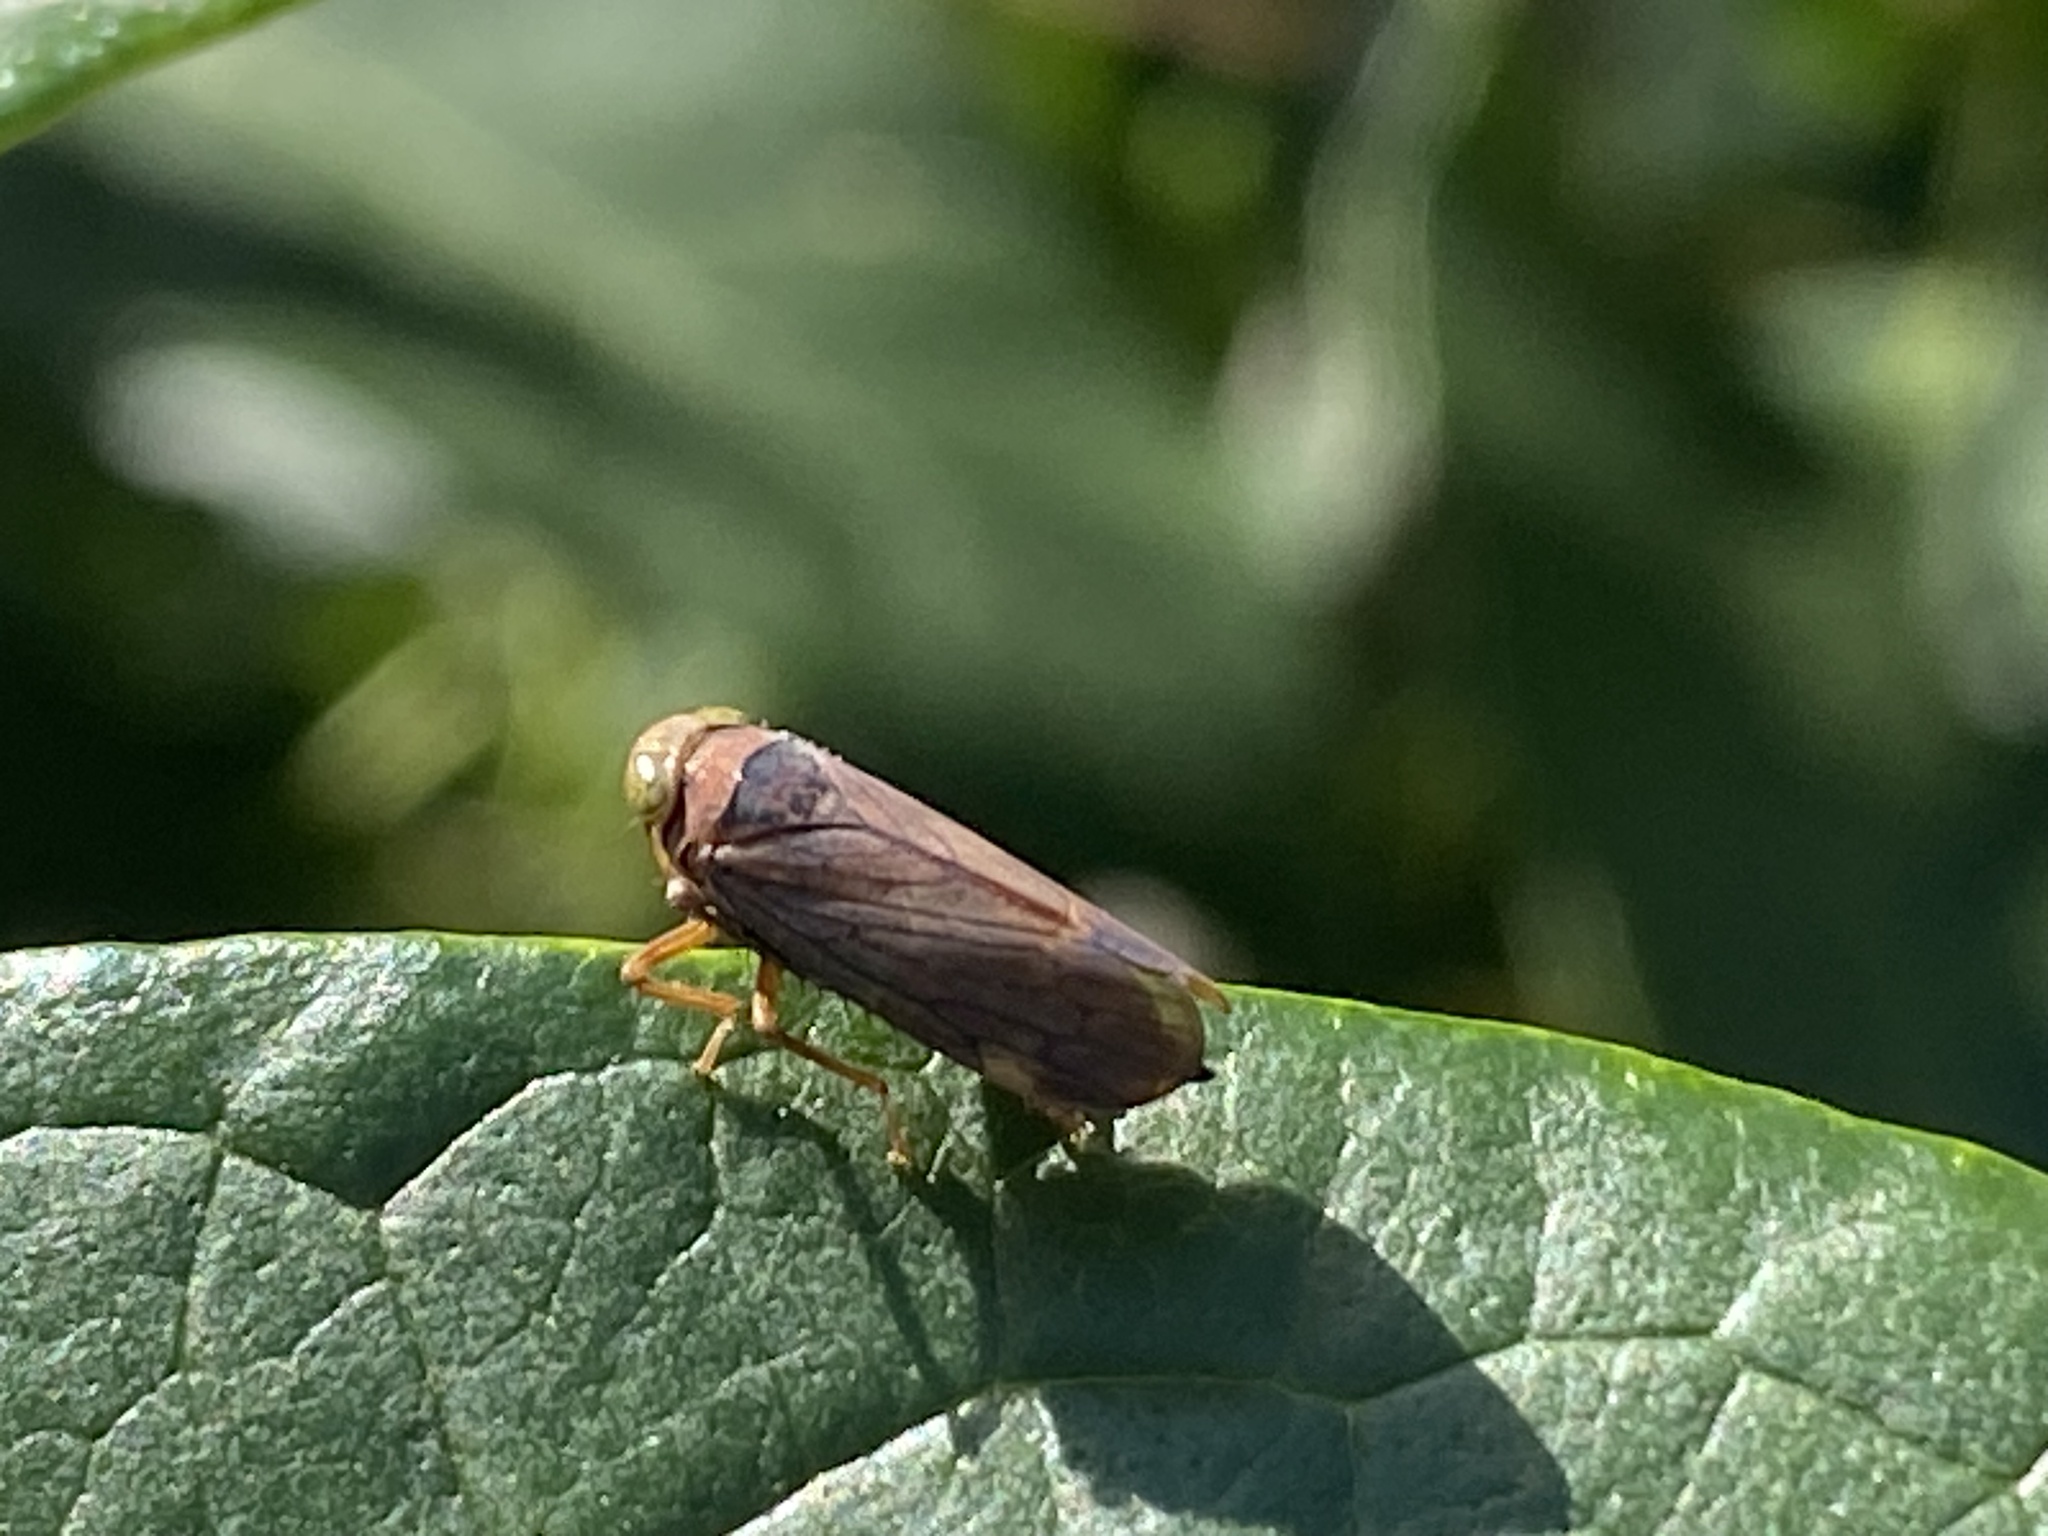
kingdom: Animalia
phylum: Arthropoda
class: Insecta
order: Hemiptera
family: Cicadellidae
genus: Jikradia
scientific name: Jikradia olitoria
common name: Coppery leafhopper
